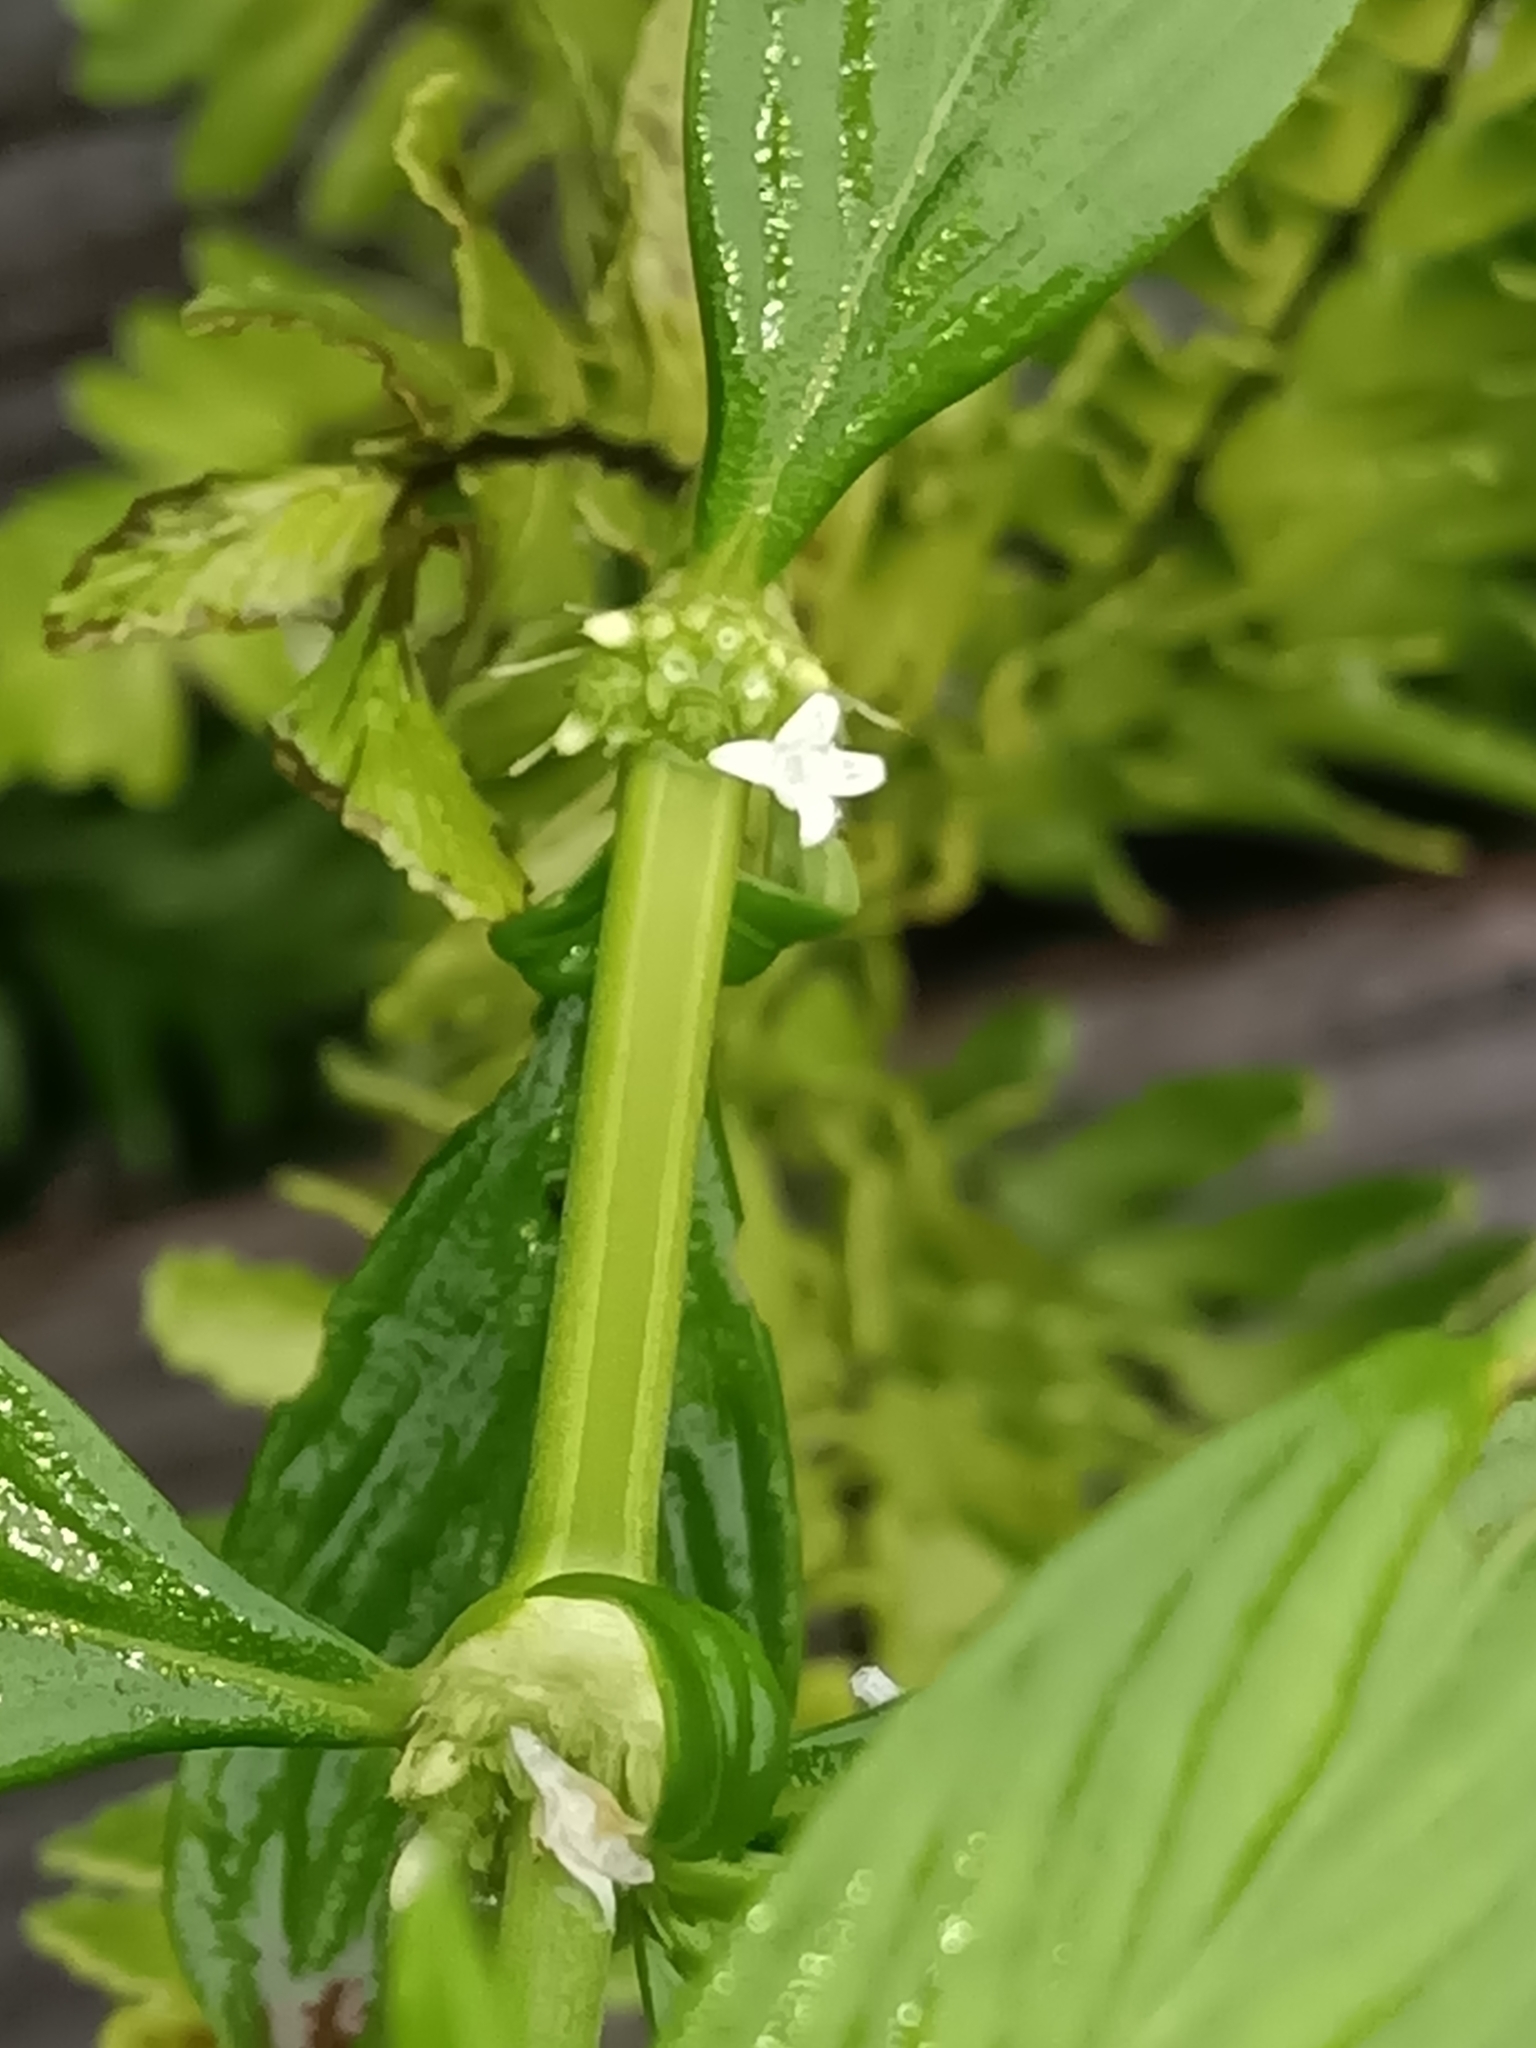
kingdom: Plantae
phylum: Tracheophyta
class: Magnoliopsida
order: Gentianales
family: Rubiaceae
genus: Spermacoce
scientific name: Spermacoce ocymifolia
